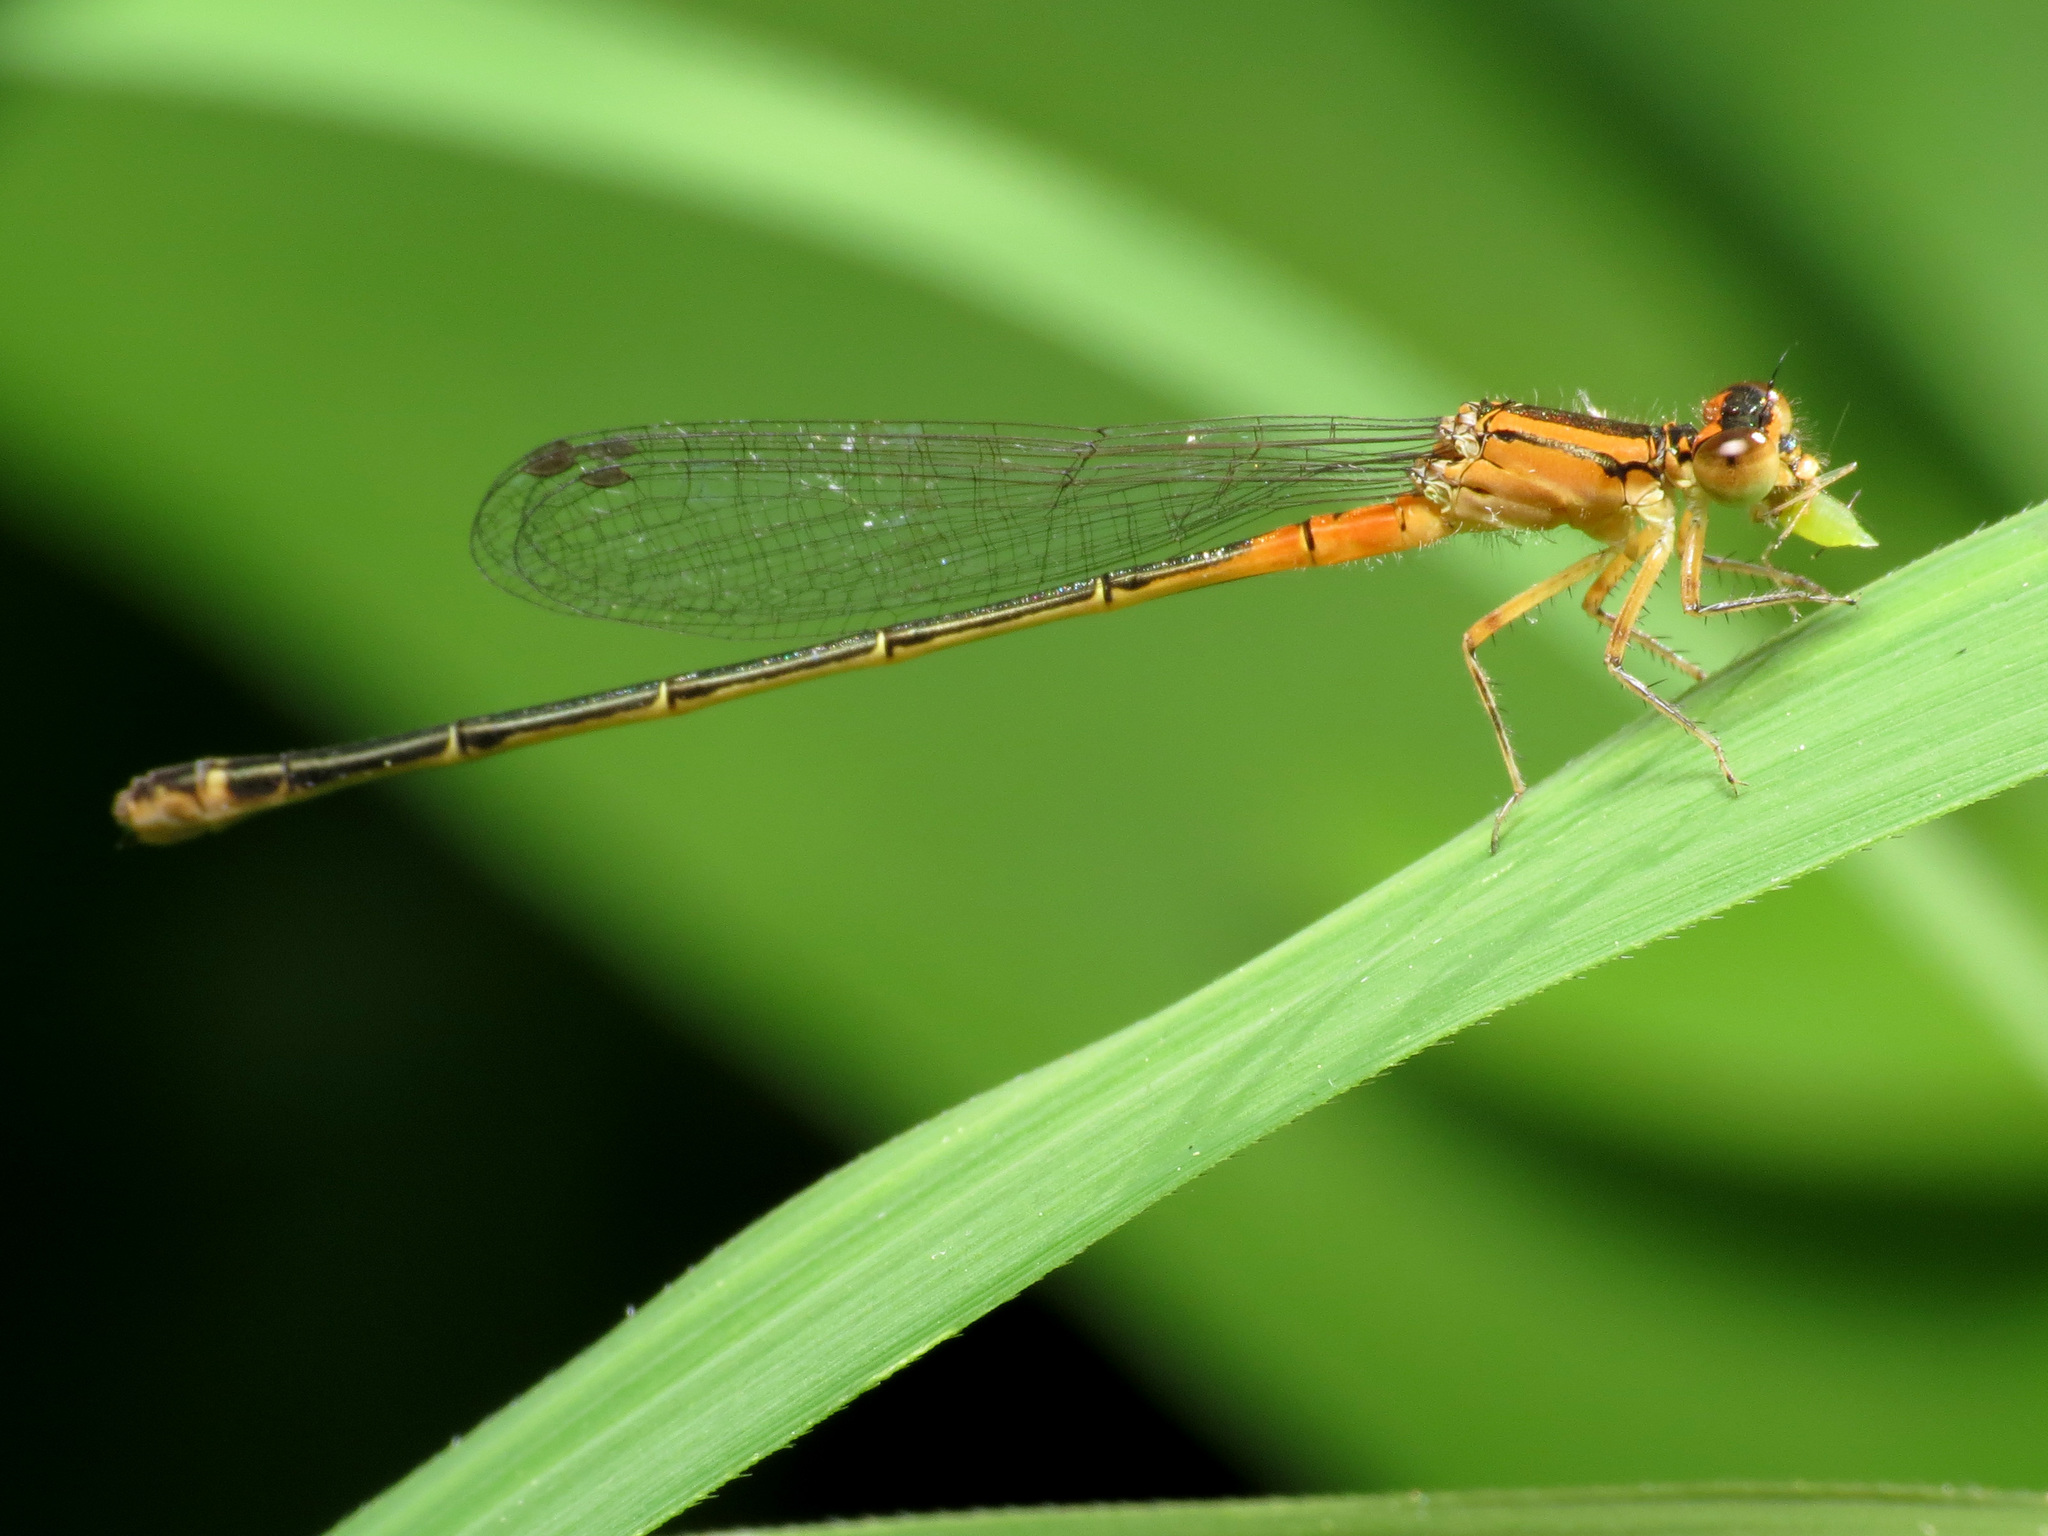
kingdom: Animalia
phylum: Arthropoda
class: Insecta
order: Odonata
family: Coenagrionidae
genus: Ischnura
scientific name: Ischnura verticalis
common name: Eastern forktail
